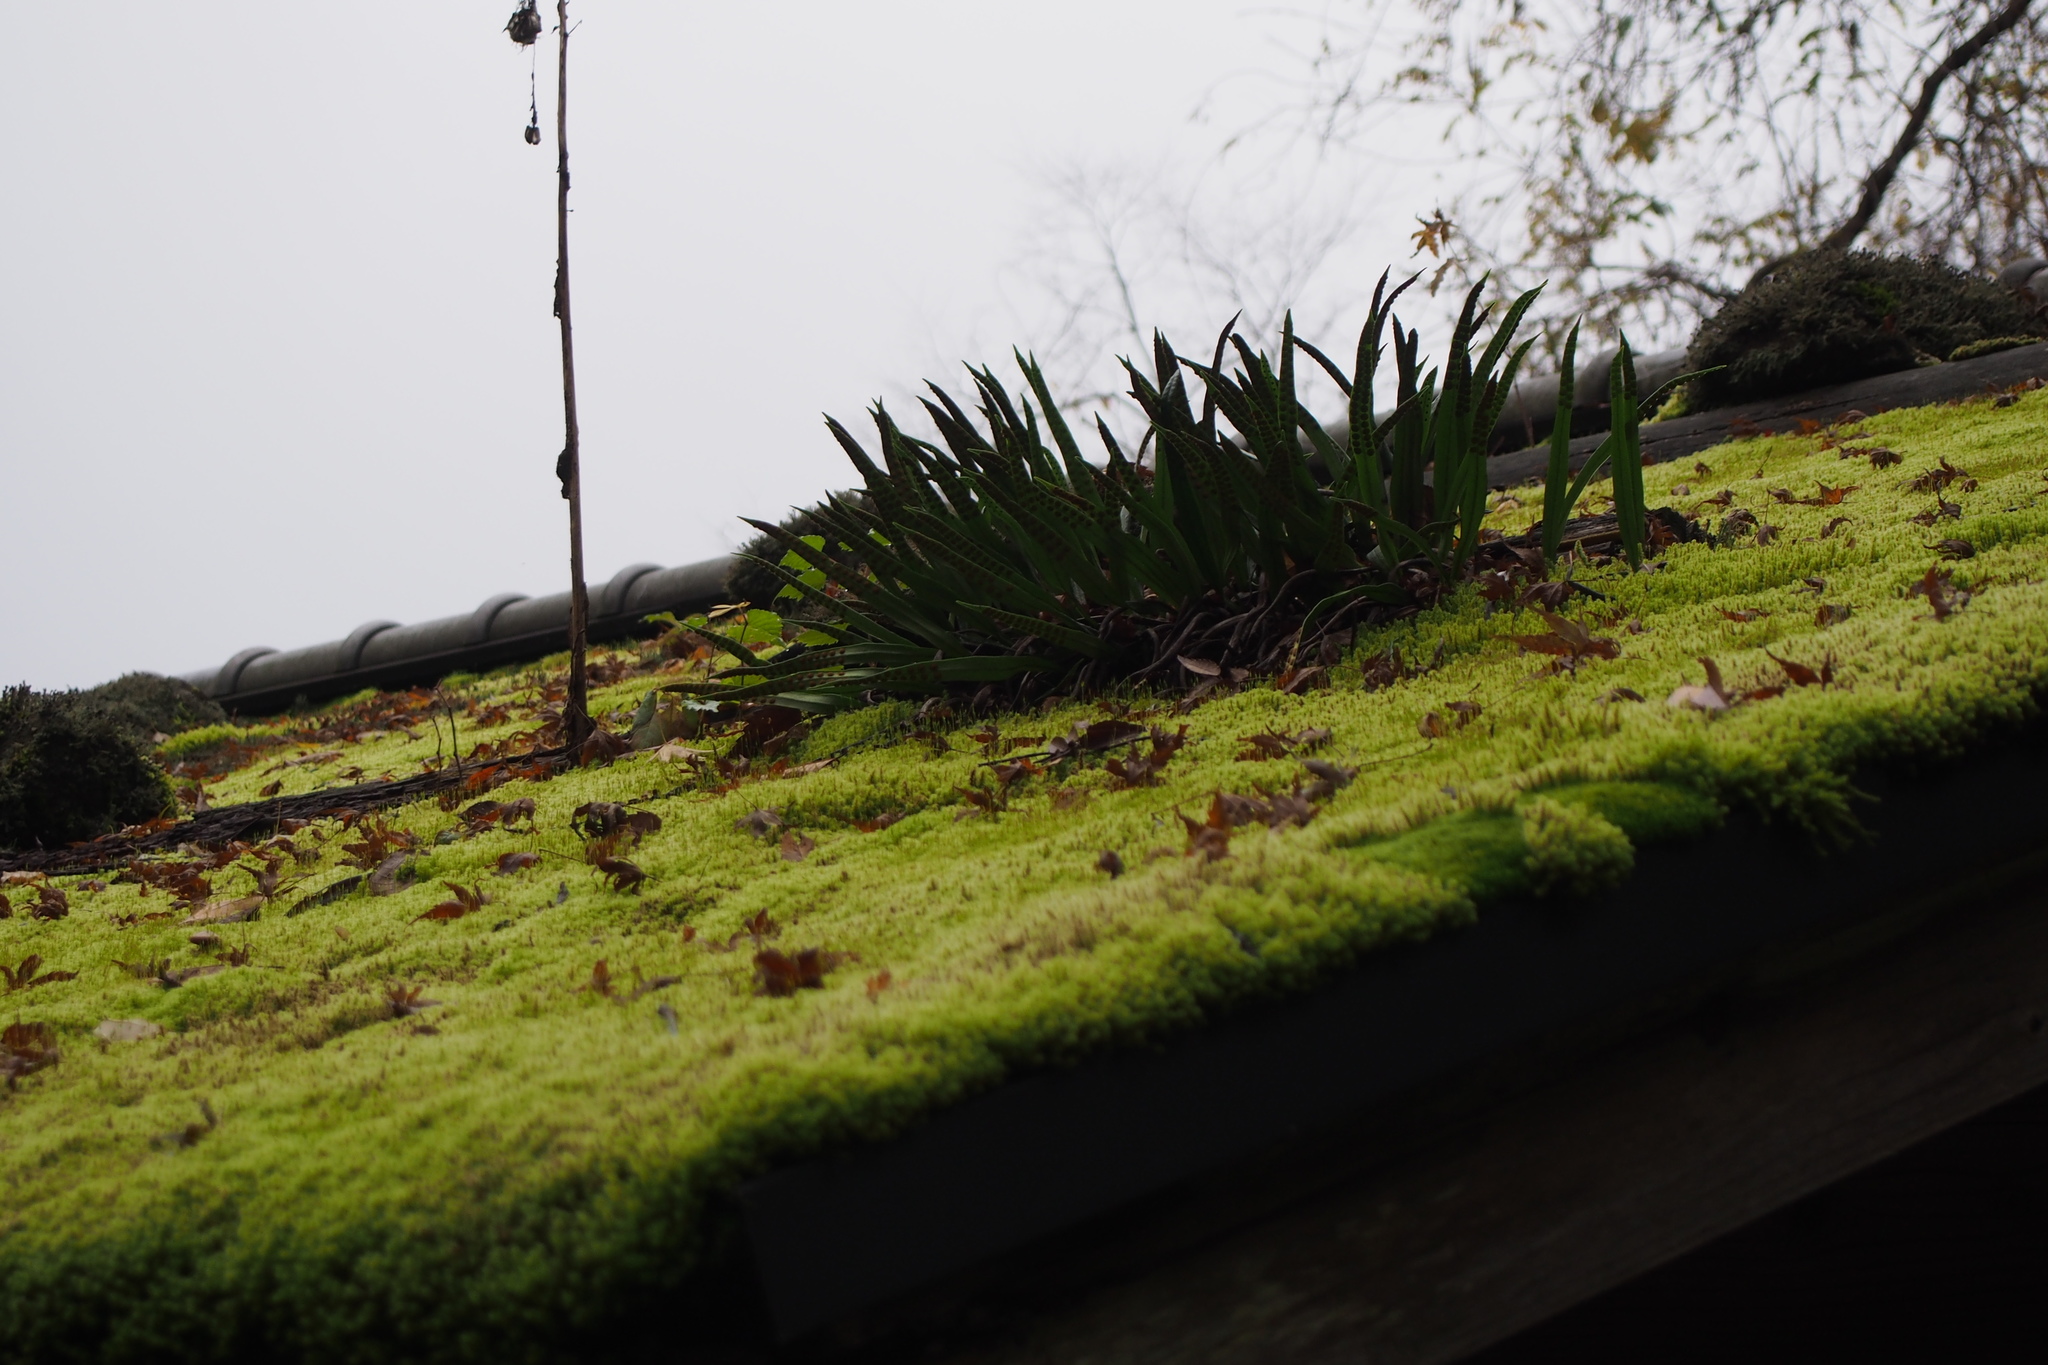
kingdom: Plantae
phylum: Tracheophyta
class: Polypodiopsida
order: Polypodiales
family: Polypodiaceae
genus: Lepisorus
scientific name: Lepisorus thunbergianus
